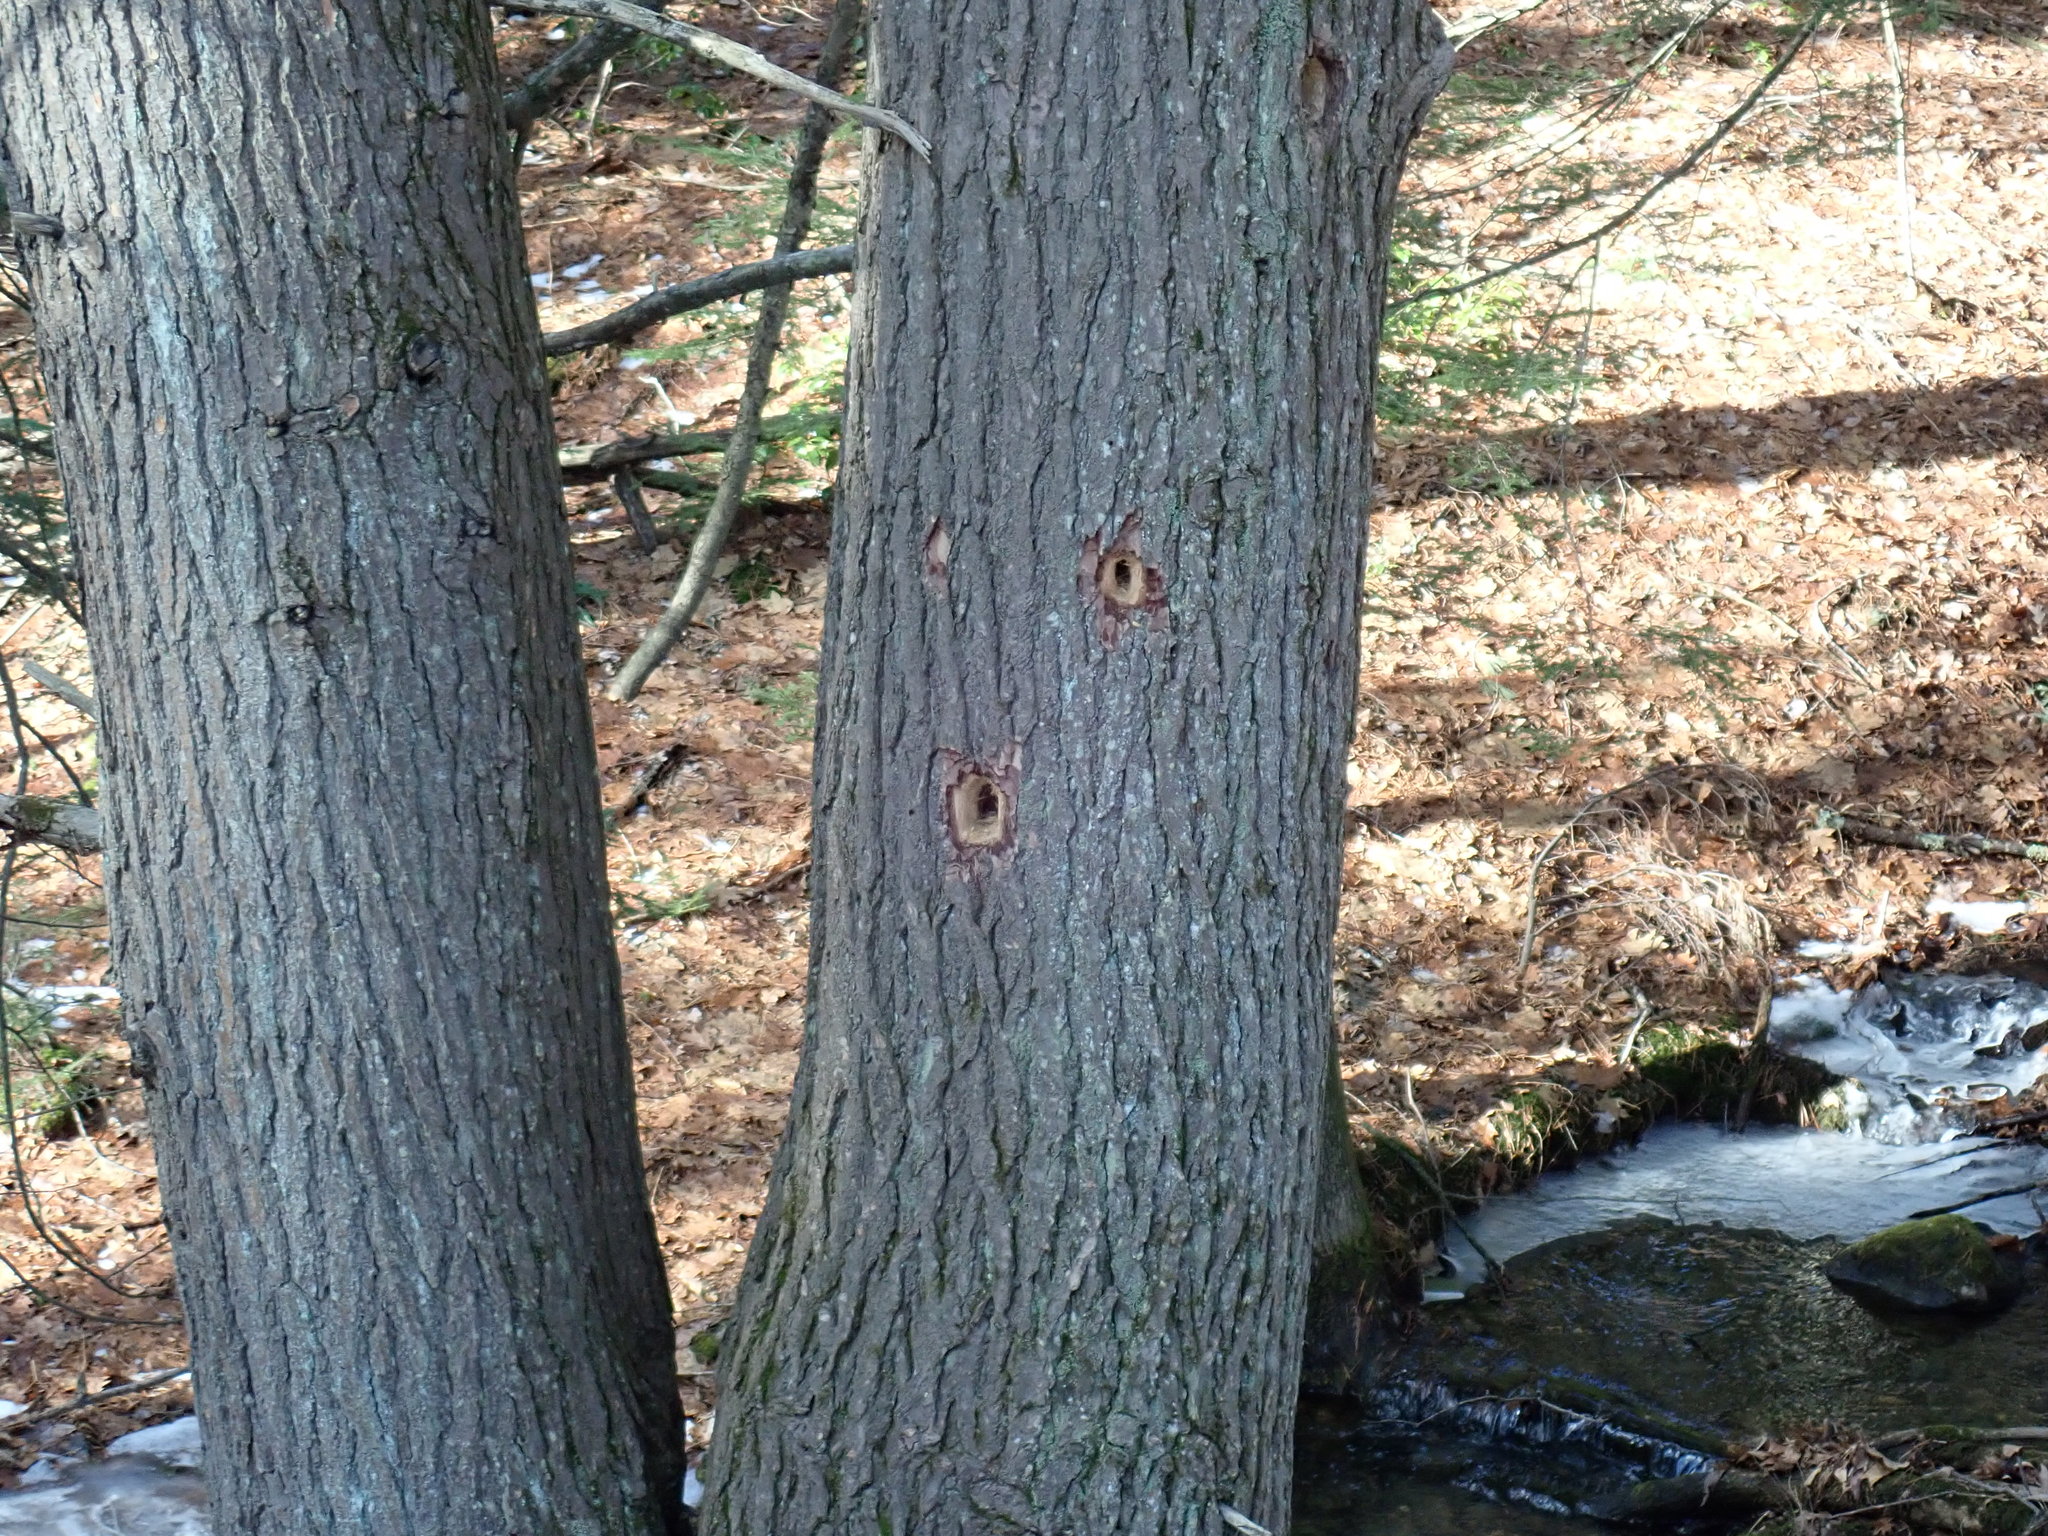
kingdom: Animalia
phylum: Chordata
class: Aves
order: Piciformes
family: Picidae
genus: Dryocopus
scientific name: Dryocopus pileatus
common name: Pileated woodpecker
